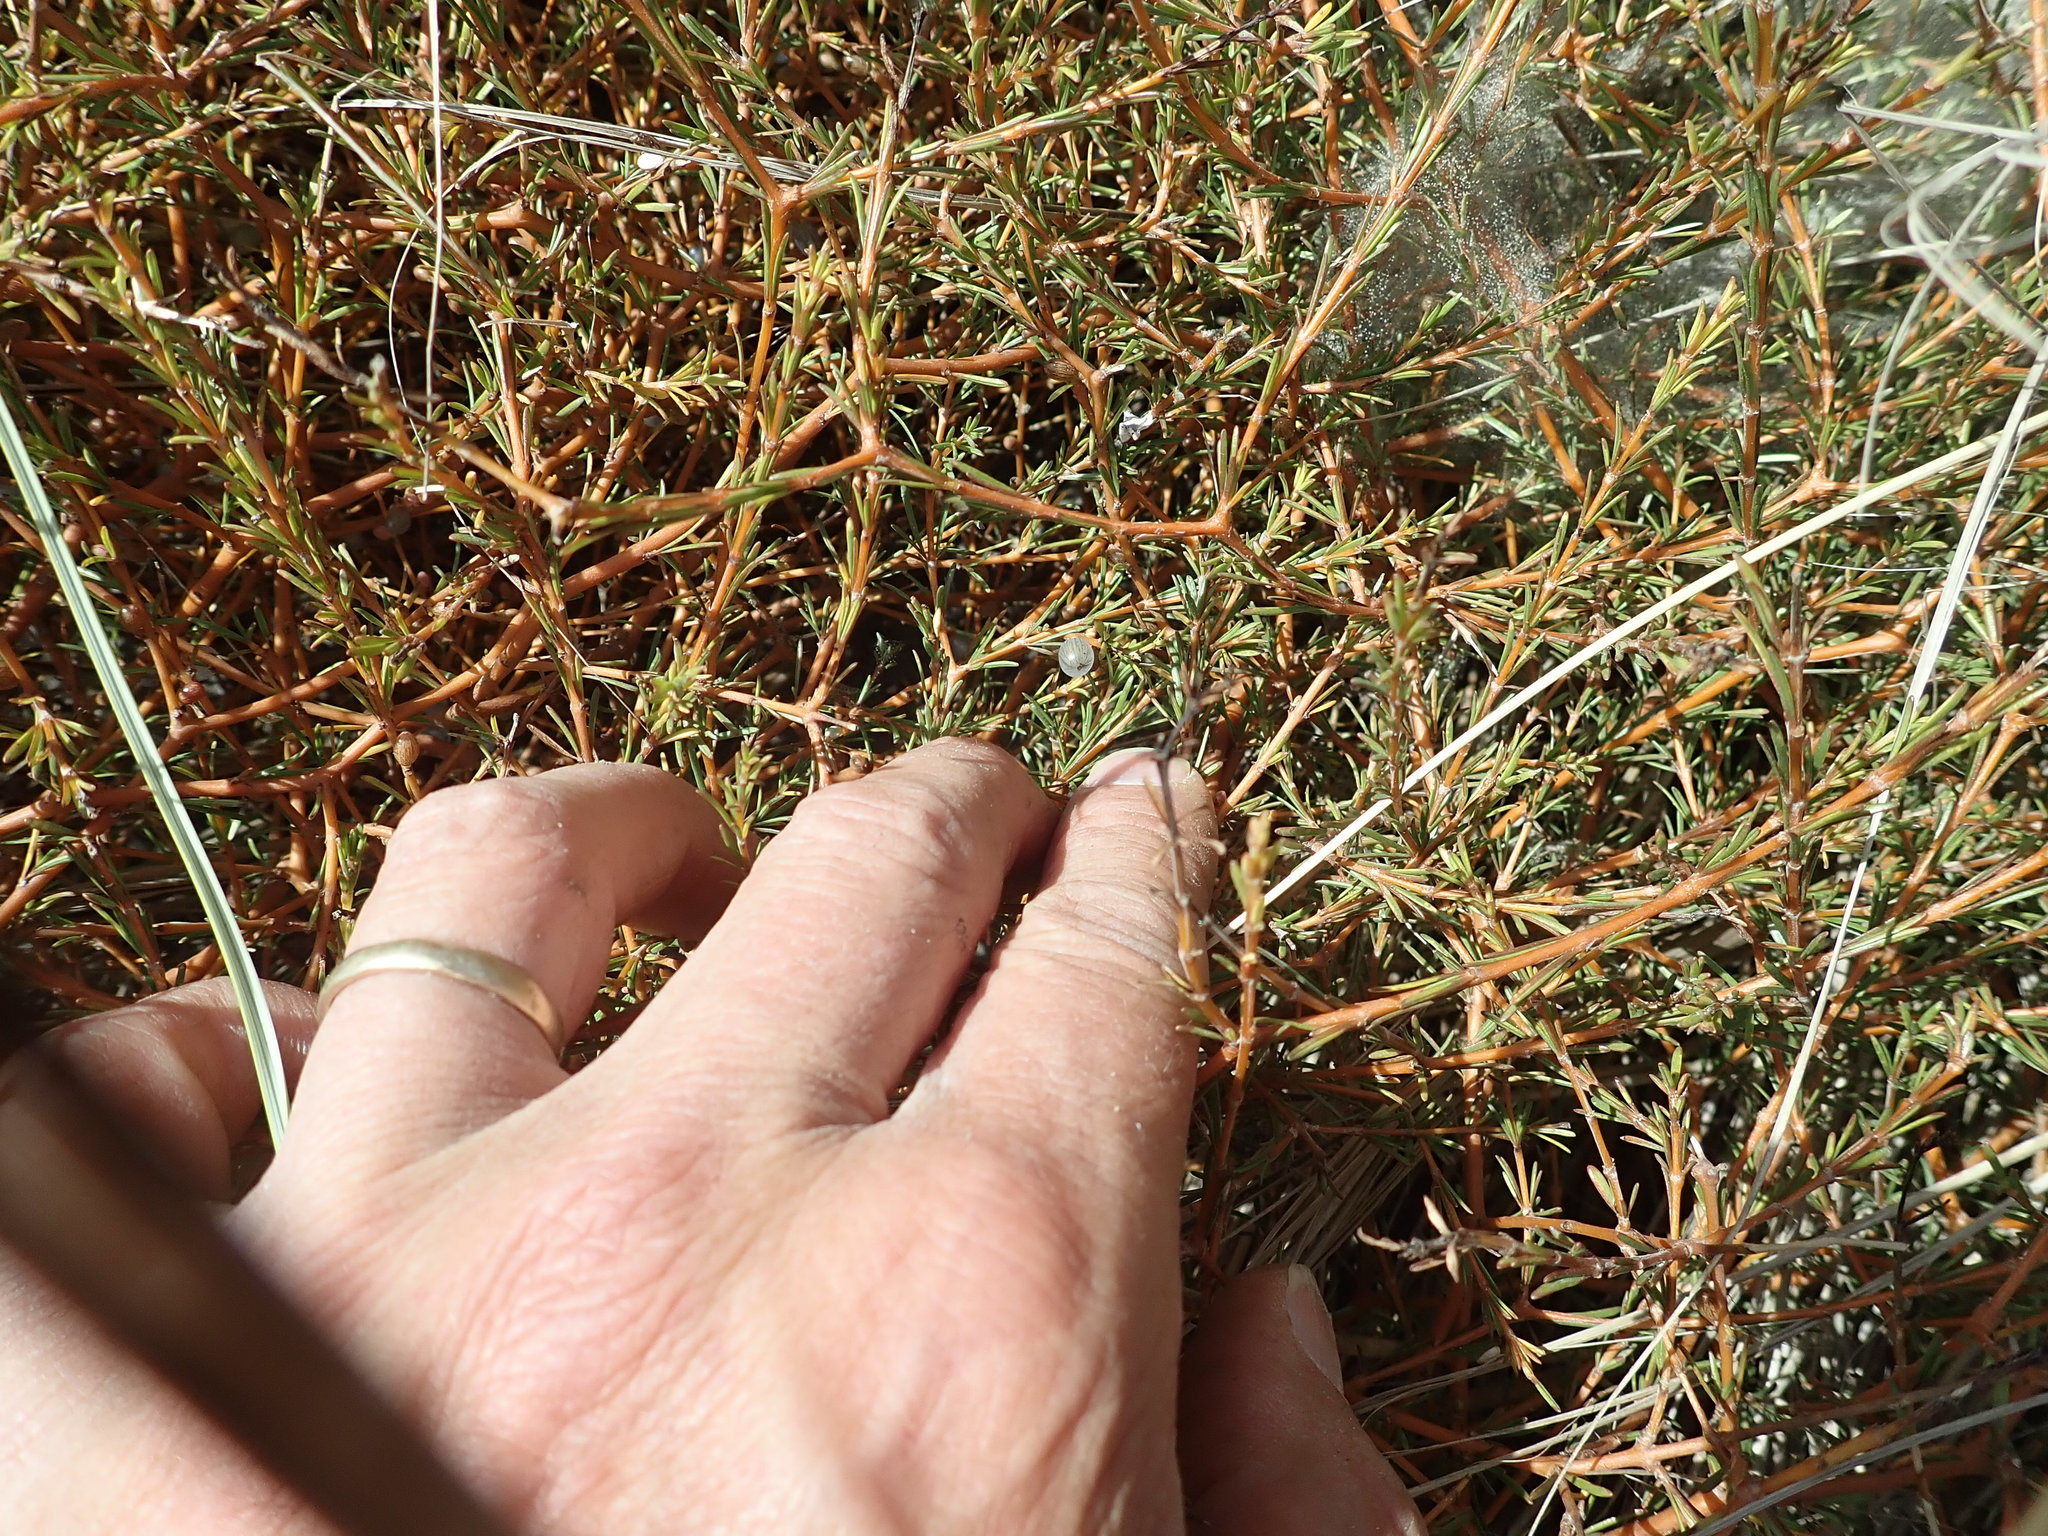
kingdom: Plantae
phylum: Tracheophyta
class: Magnoliopsida
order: Gentianales
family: Rubiaceae
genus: Coprosma
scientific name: Coprosma acerosa
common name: Sand coprosma
